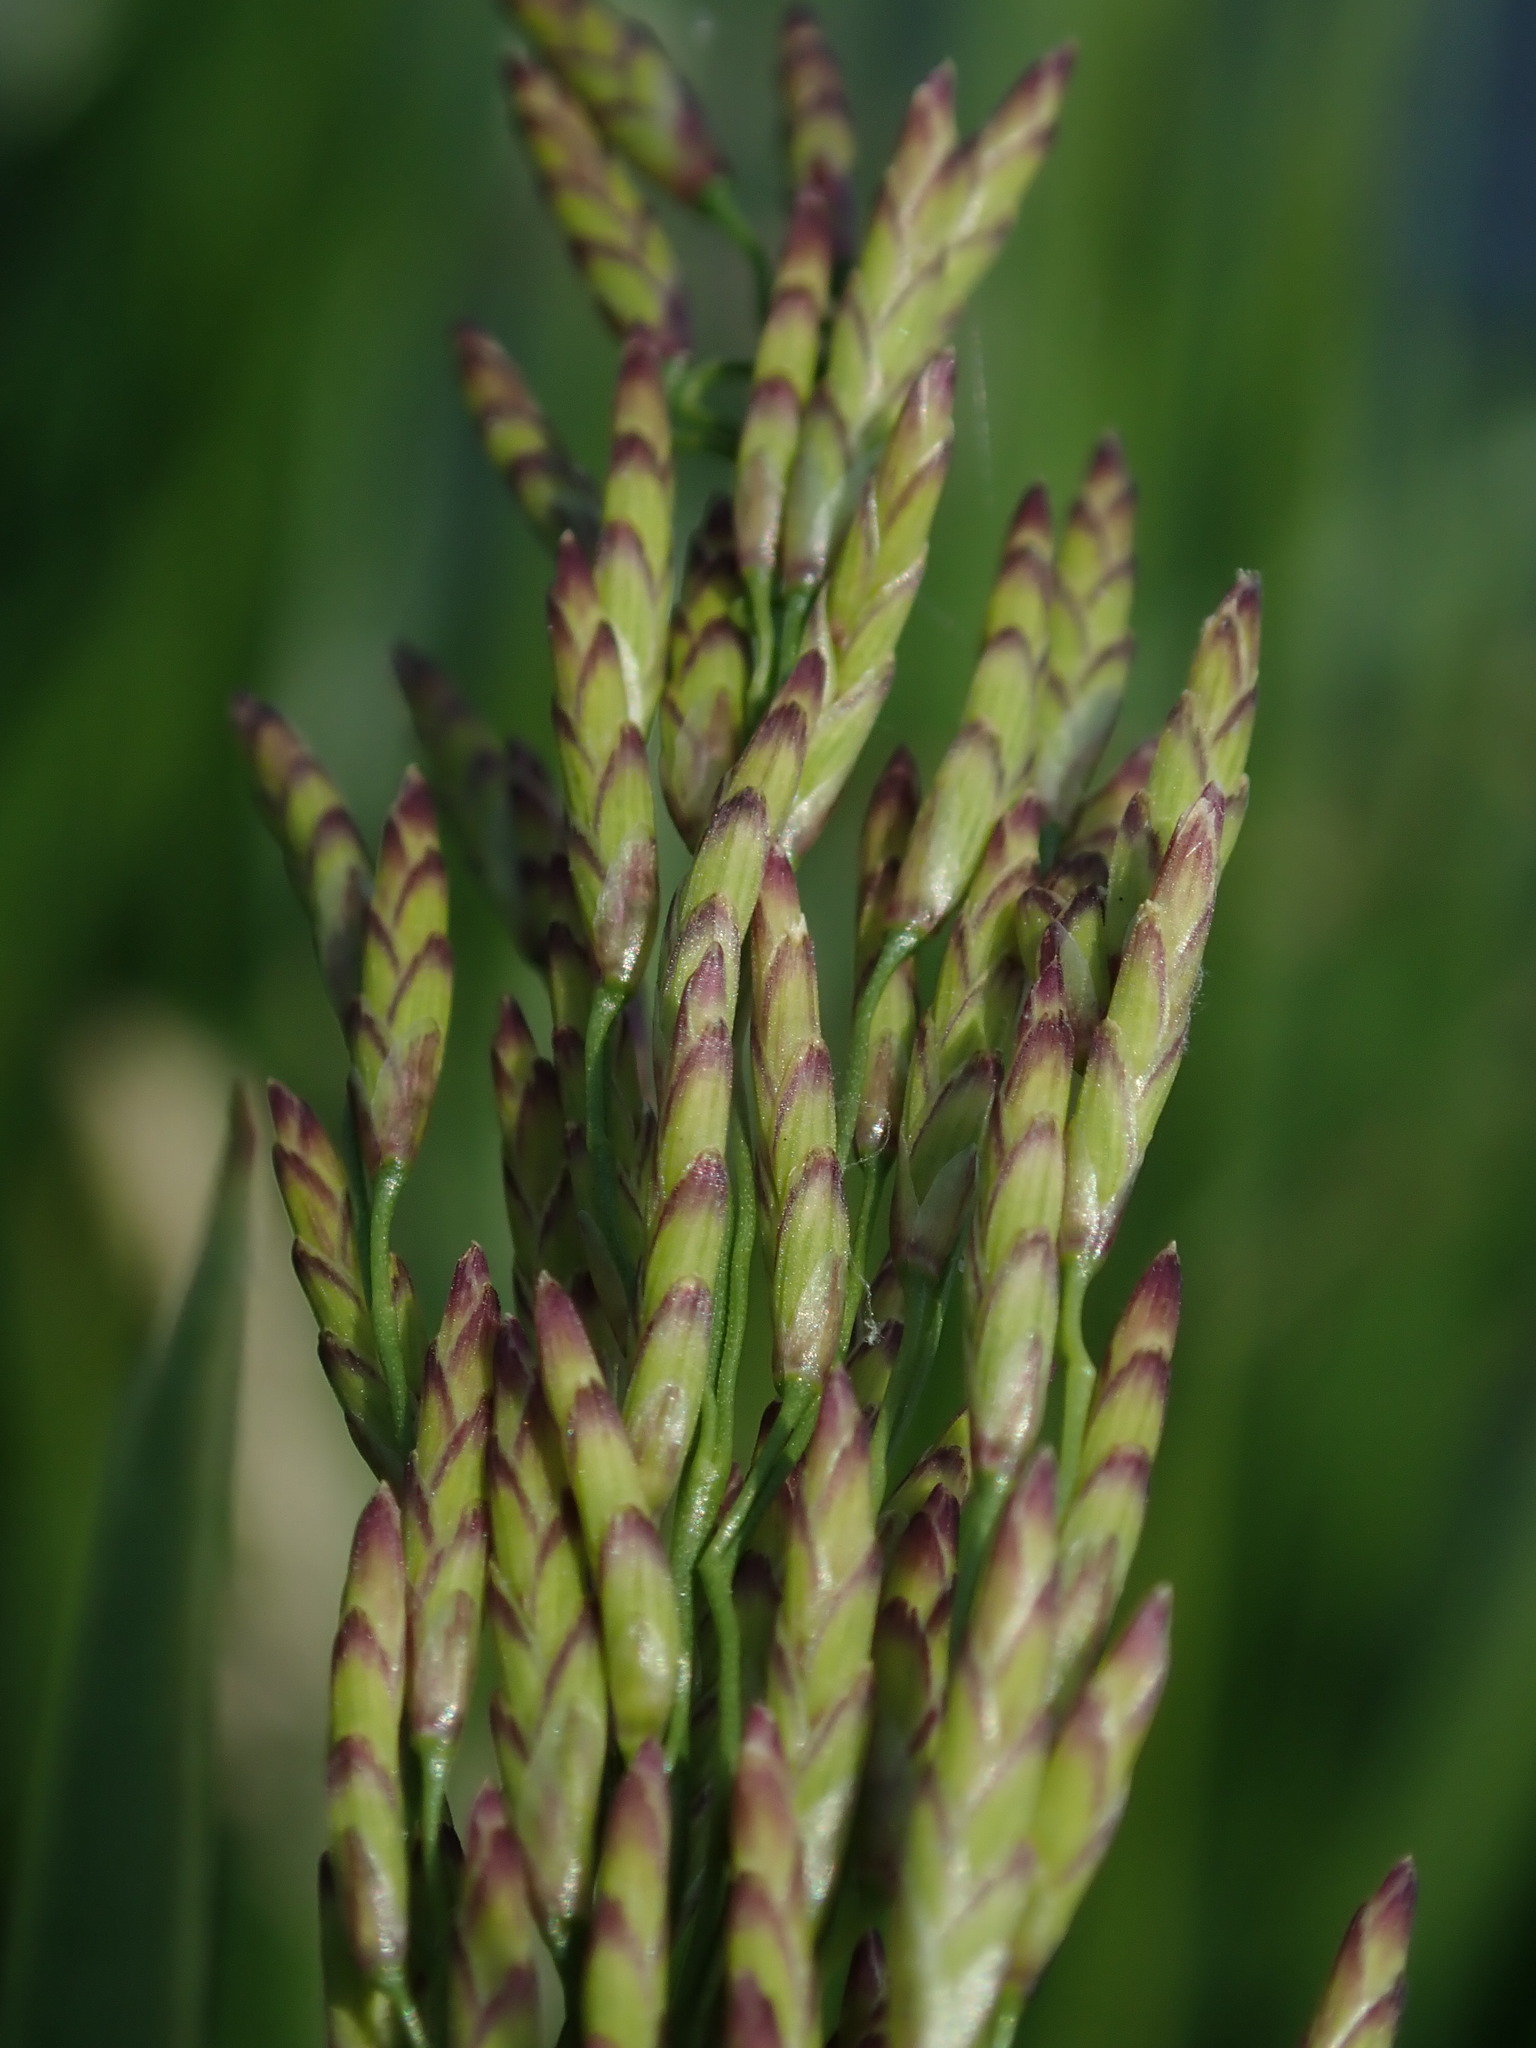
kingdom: Plantae
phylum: Tracheophyta
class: Liliopsida
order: Poales
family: Poaceae
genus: Glyceria
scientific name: Glyceria maxima
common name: Reed mannagrass
